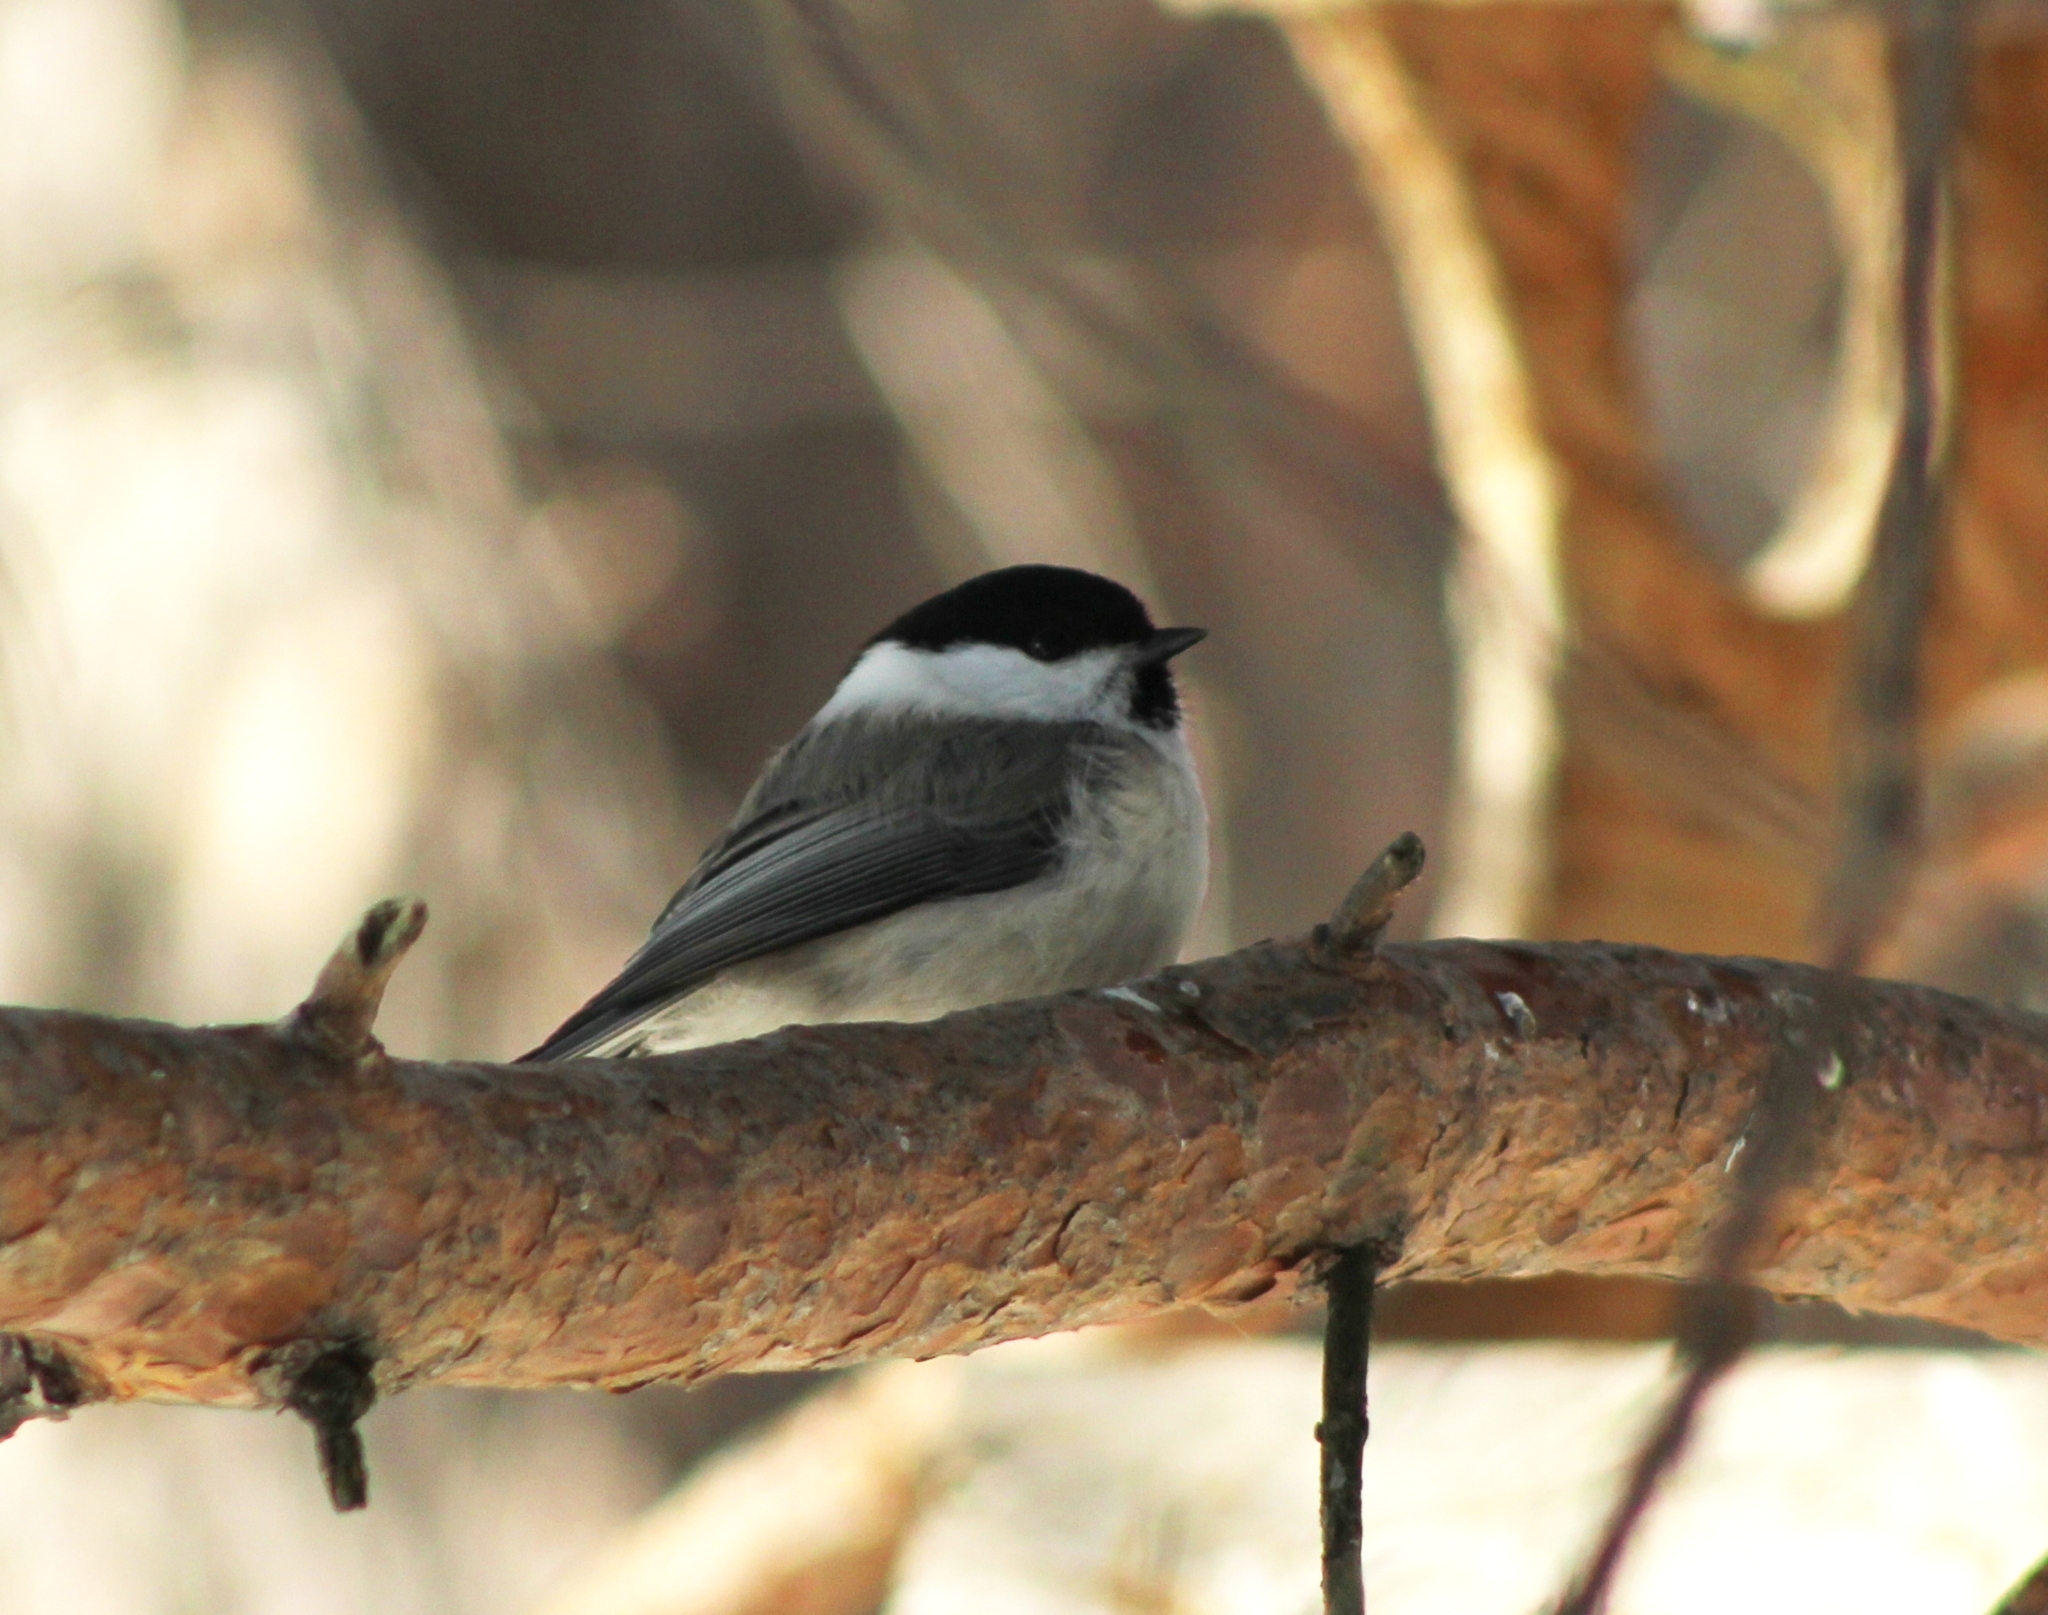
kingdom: Animalia
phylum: Chordata
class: Aves
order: Passeriformes
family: Paridae
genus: Poecile
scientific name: Poecile montanus
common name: Willow tit
